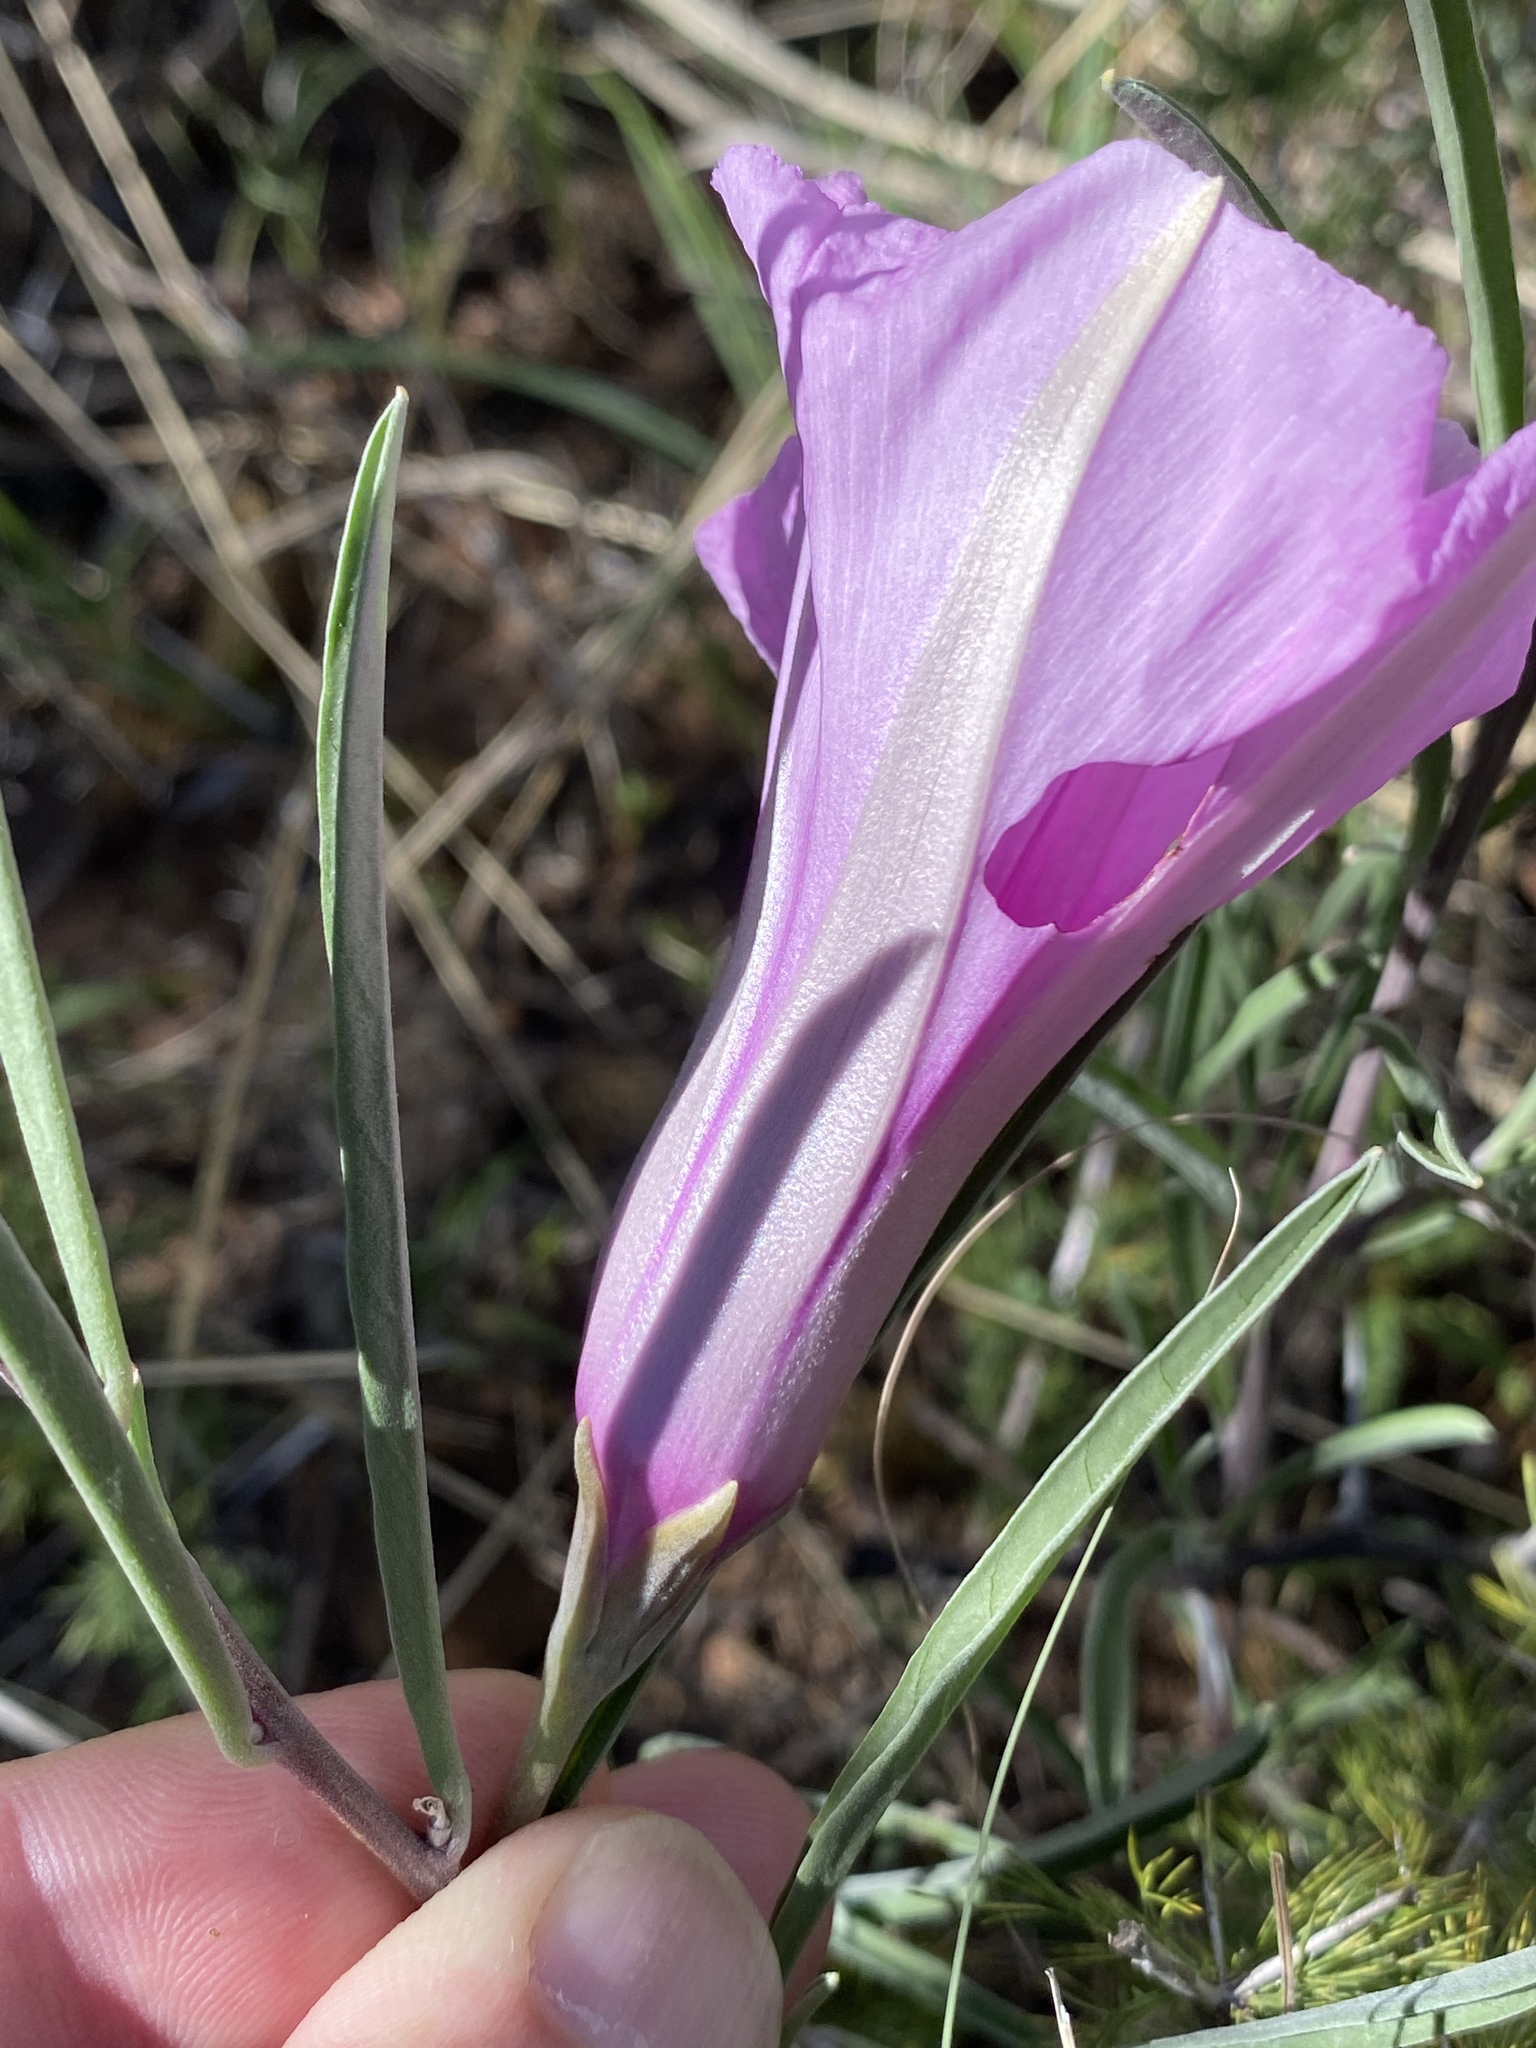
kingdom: Plantae
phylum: Tracheophyta
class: Magnoliopsida
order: Solanales
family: Convolvulaceae
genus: Ipomoea
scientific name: Ipomoea oenotheroides
